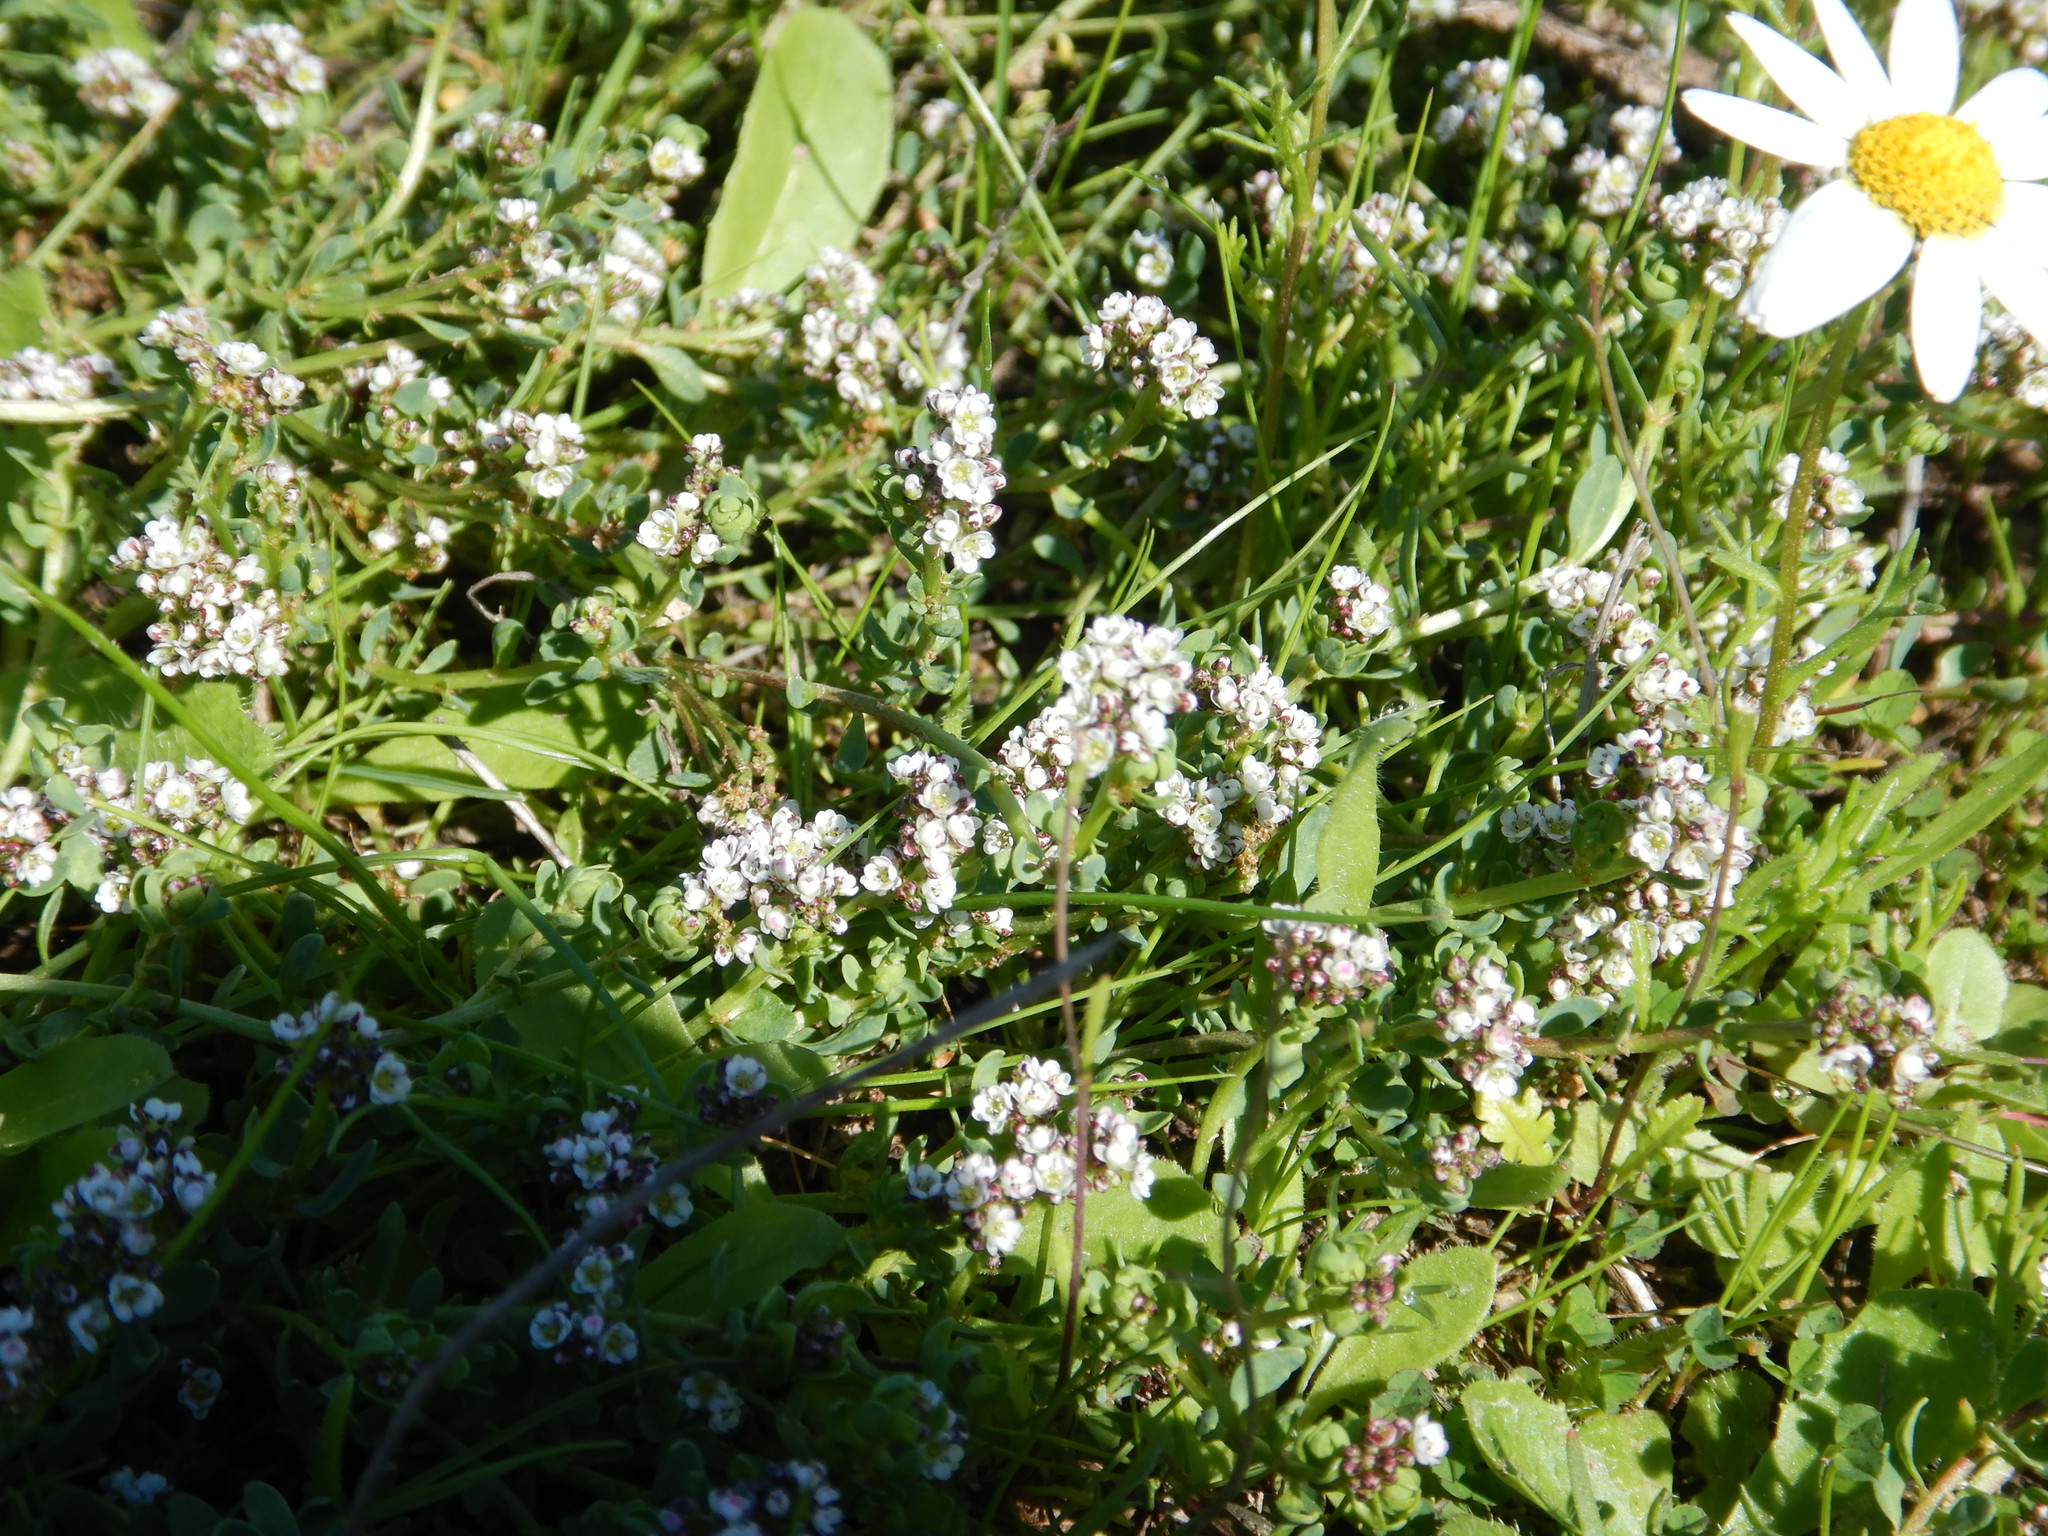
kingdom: Plantae
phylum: Tracheophyta
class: Magnoliopsida
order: Caryophyllales
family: Caryophyllaceae
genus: Corrigiola
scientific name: Corrigiola litoralis
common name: Strapwort
